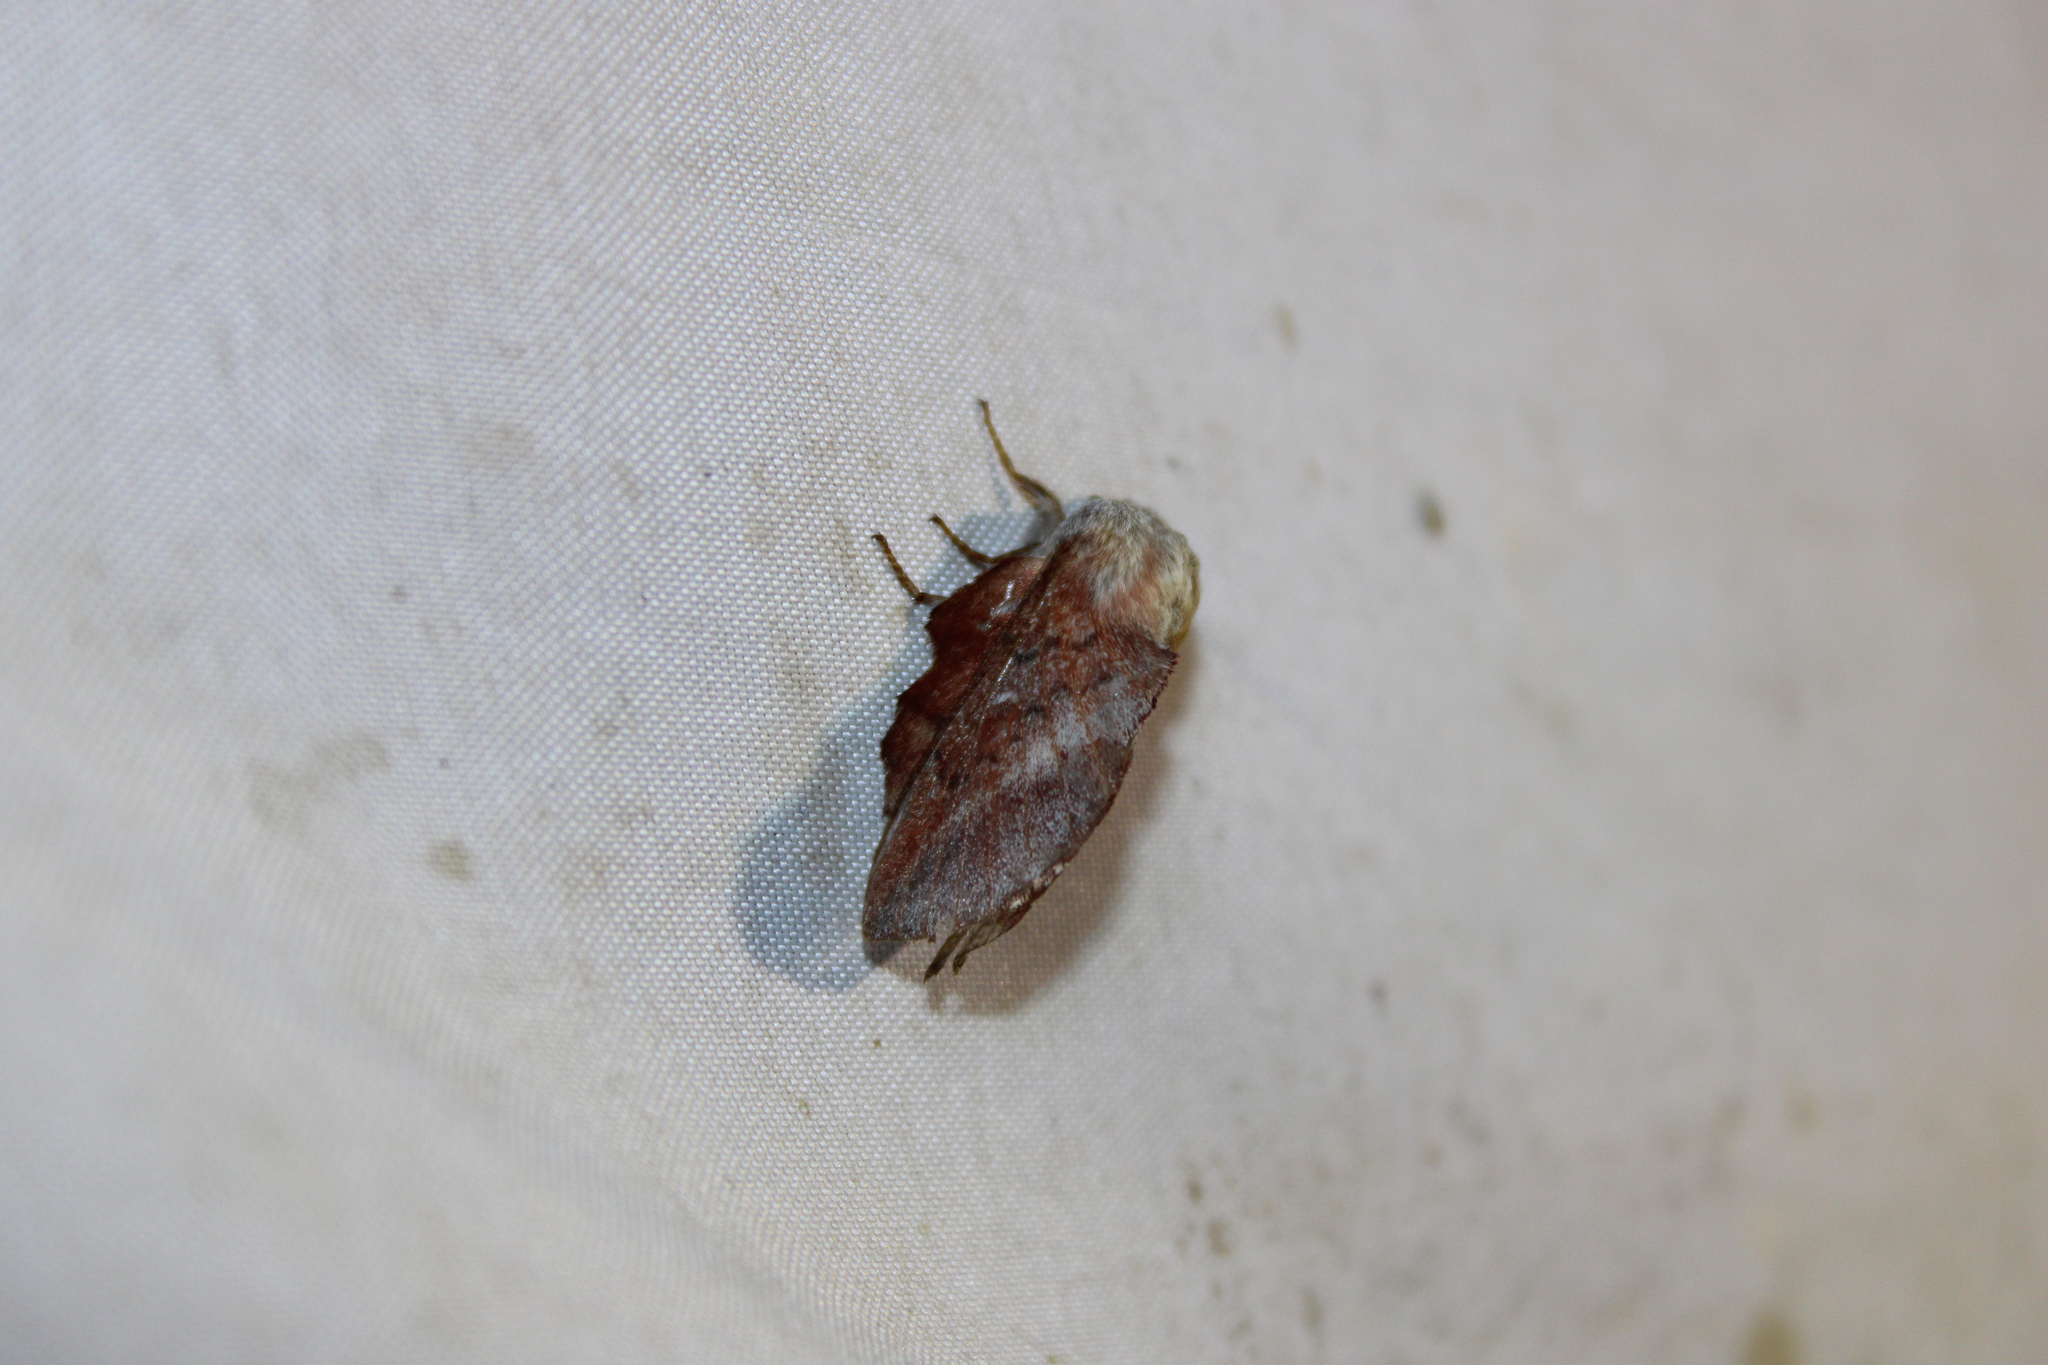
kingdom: Animalia
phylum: Arthropoda
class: Insecta
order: Lepidoptera
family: Lasiocampidae
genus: Phyllodesma
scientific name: Phyllodesma americana
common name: American lappet moth
